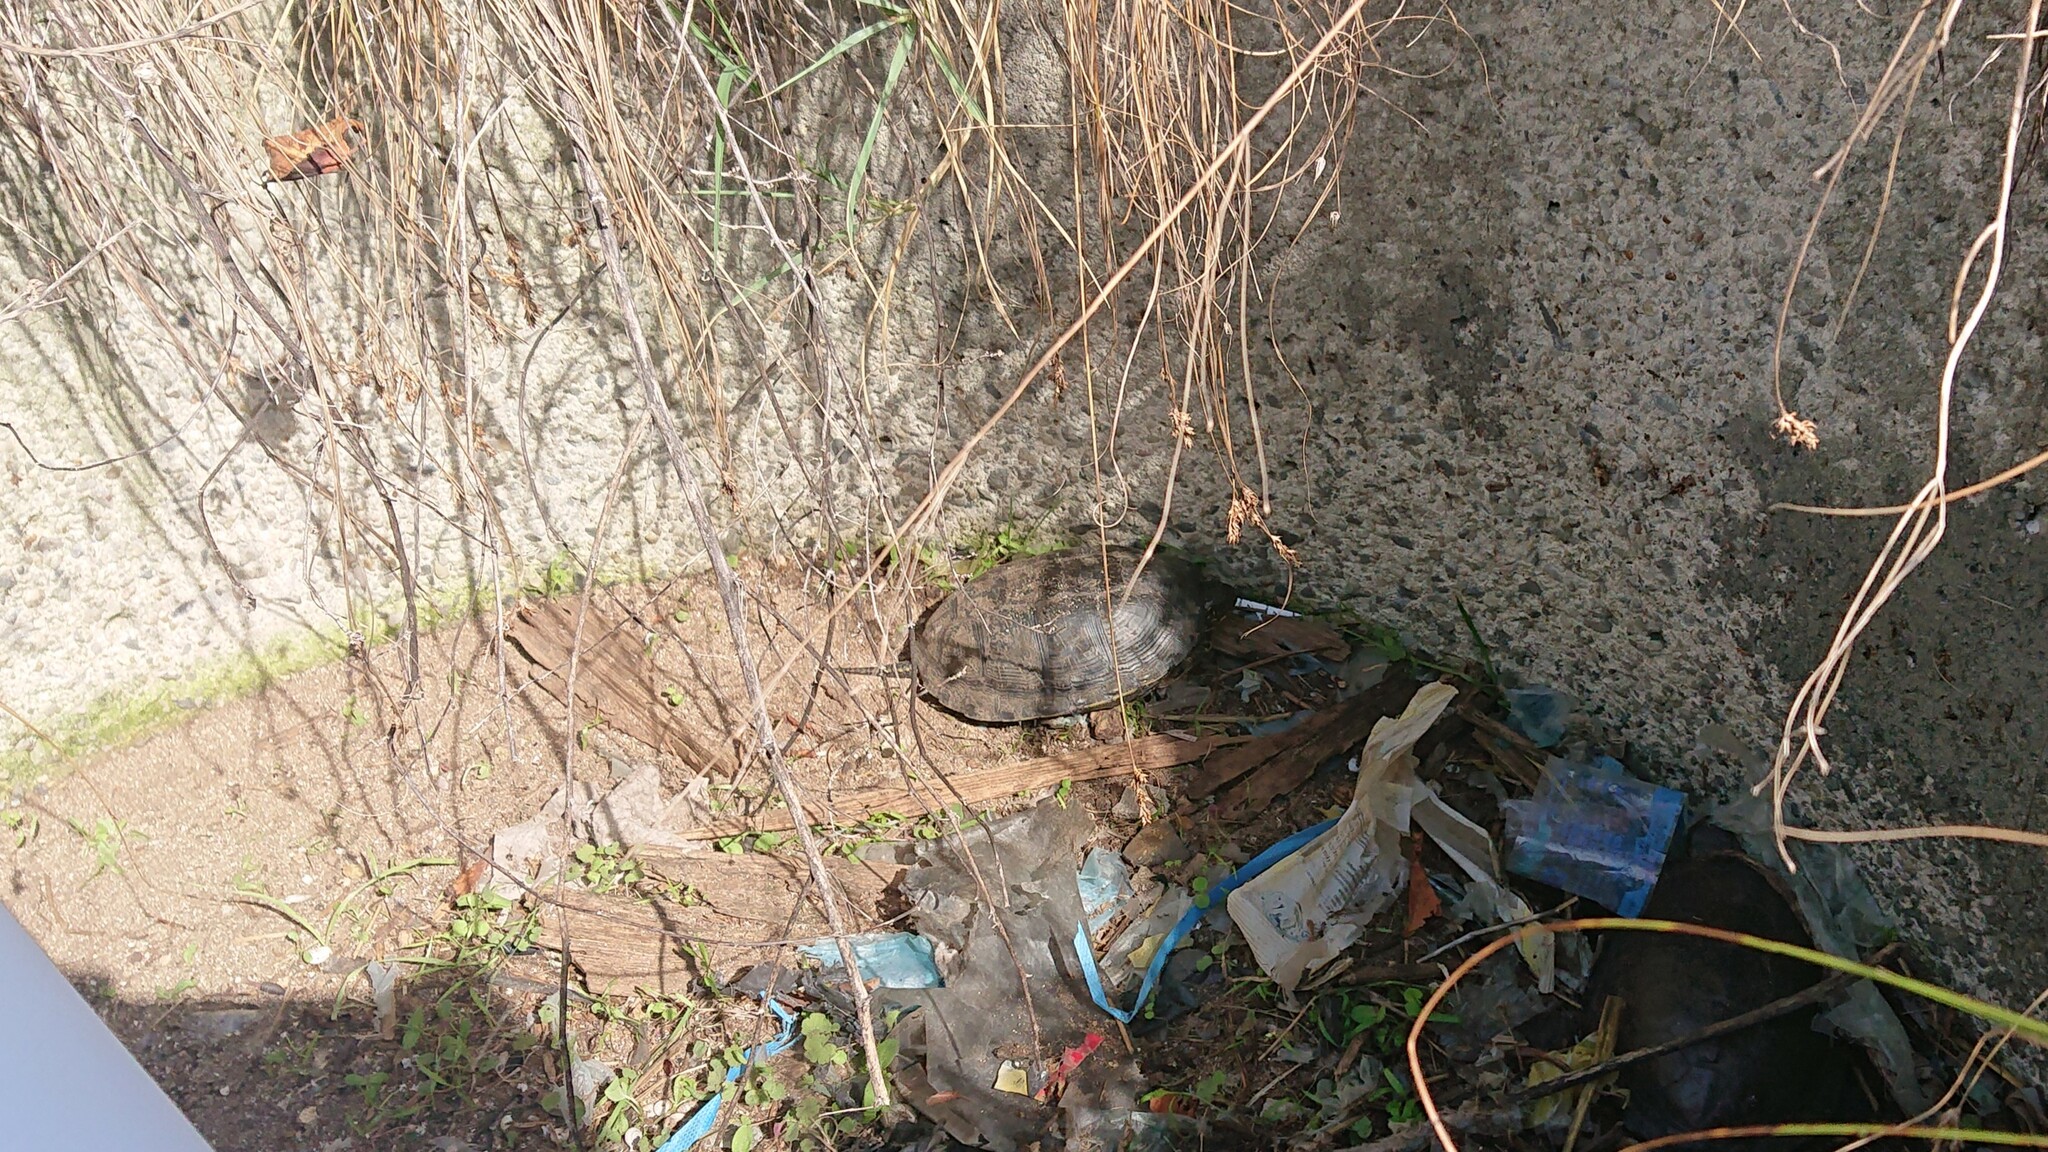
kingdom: Animalia
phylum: Chordata
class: Testudines
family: Emydidae
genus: Emys
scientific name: Emys orbicularis
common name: European pond turtle
